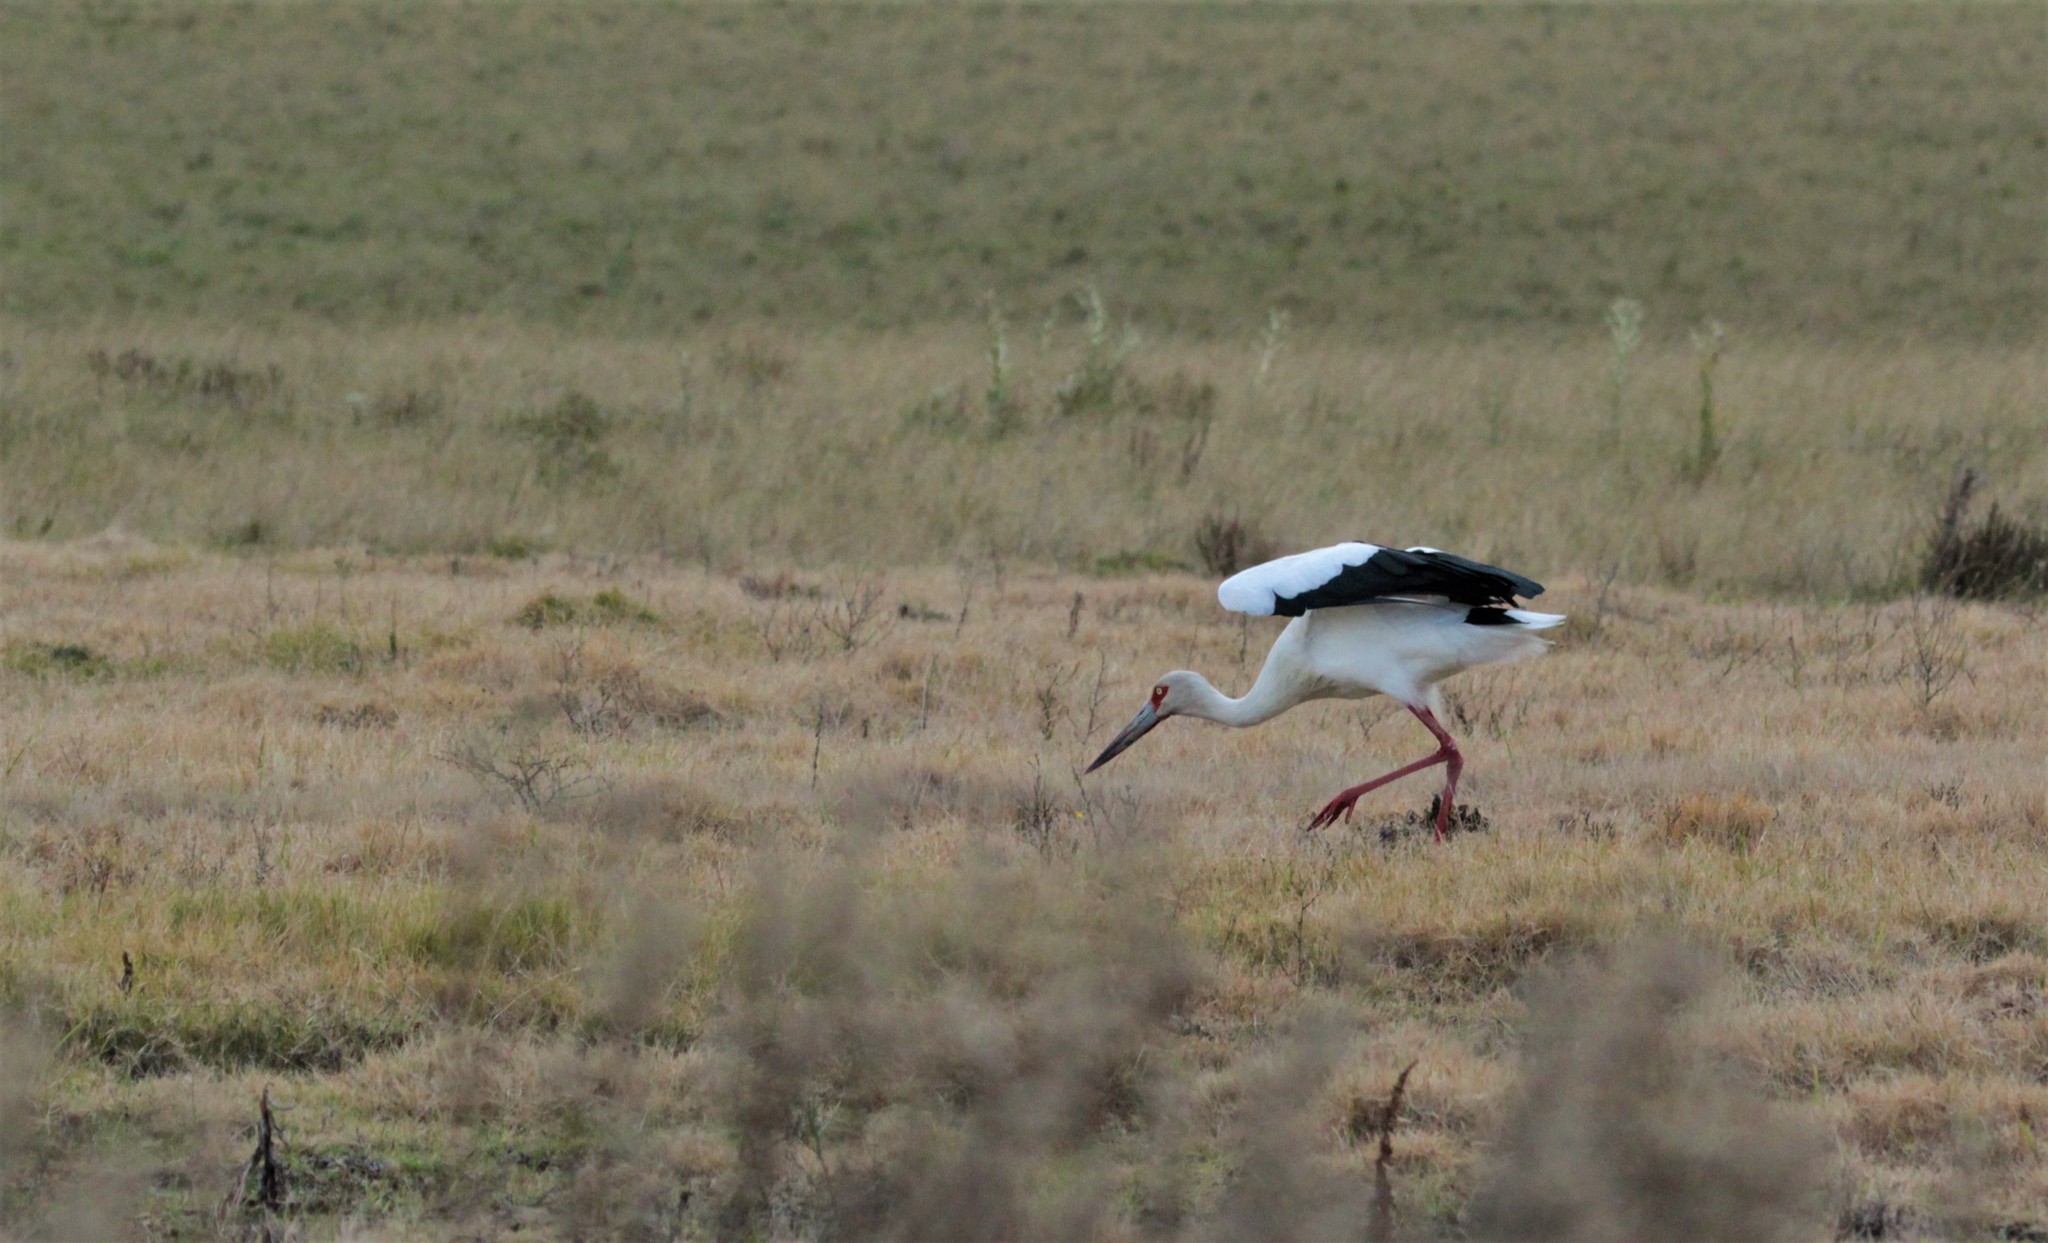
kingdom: Animalia
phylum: Chordata
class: Aves
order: Ciconiiformes
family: Ciconiidae
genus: Ciconia
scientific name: Ciconia maguari
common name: Maguari stork
